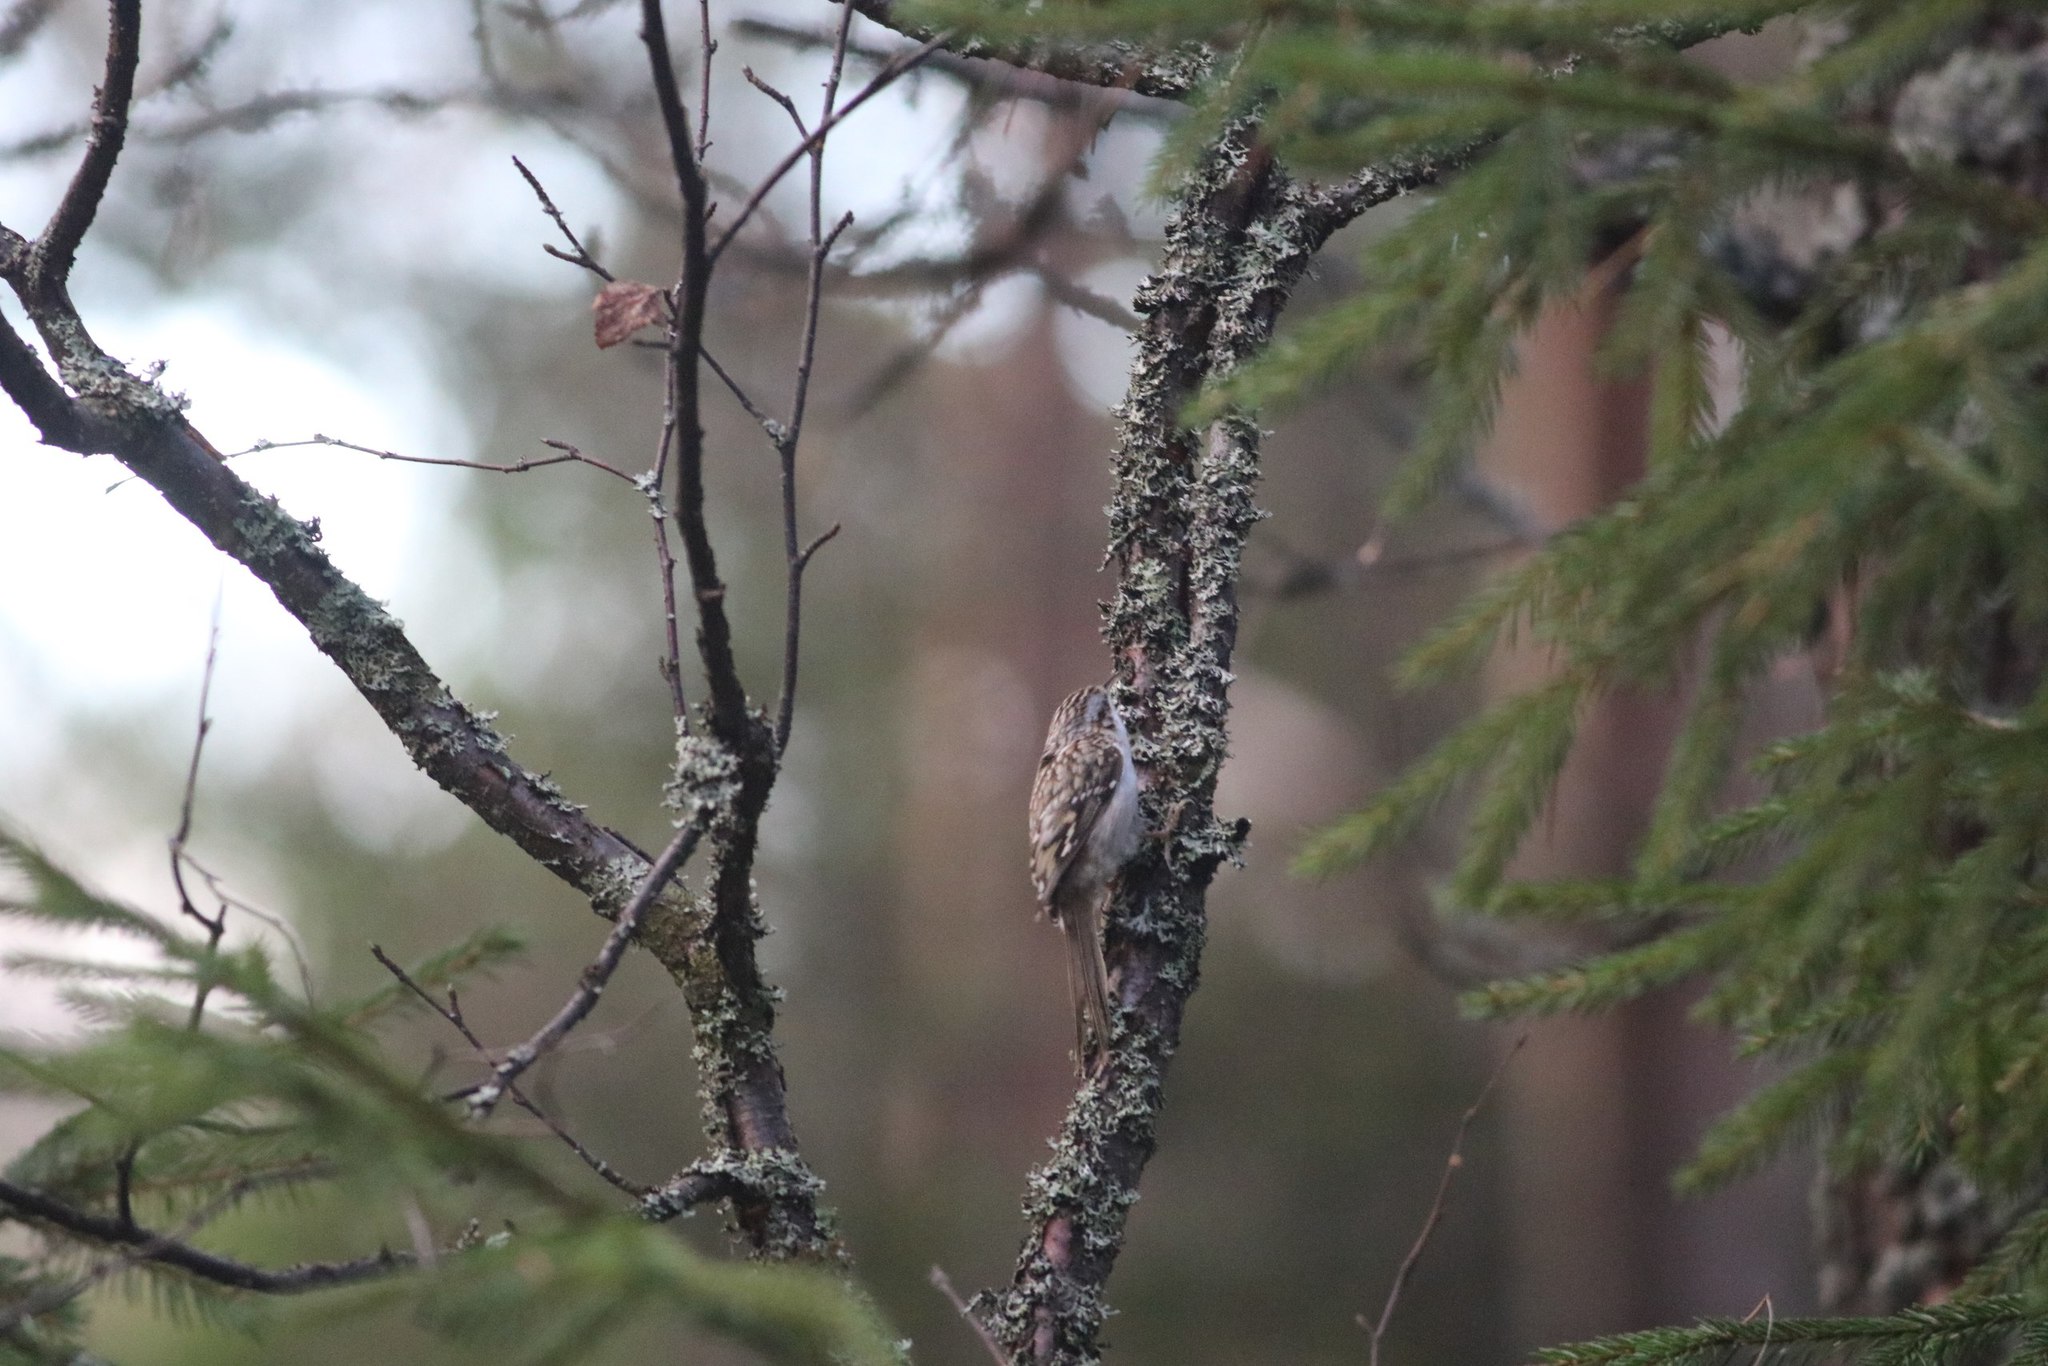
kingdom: Animalia
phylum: Chordata
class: Aves
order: Passeriformes
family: Certhiidae
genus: Certhia
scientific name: Certhia familiaris
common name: Eurasian treecreeper
